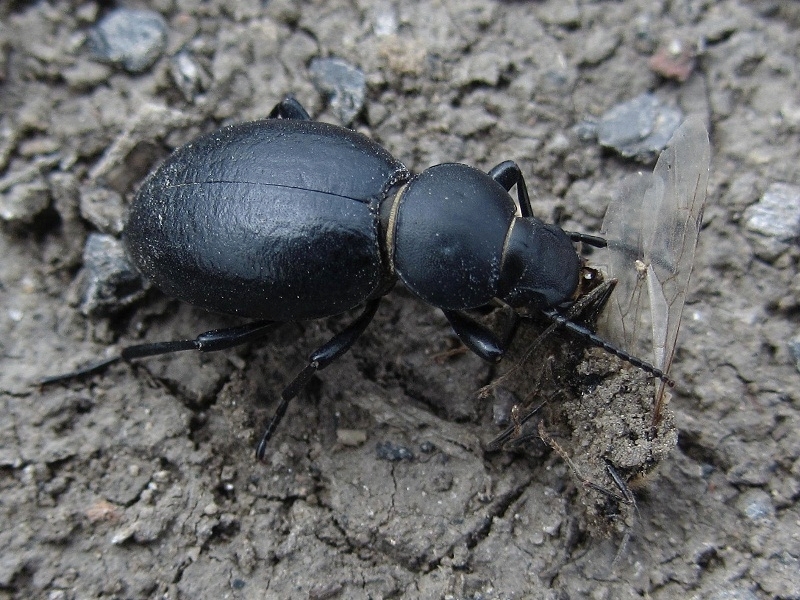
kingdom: Animalia
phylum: Arthropoda
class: Insecta
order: Coleoptera
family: Tenebrionidae
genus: Tentyria
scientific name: Tentyria nomas
